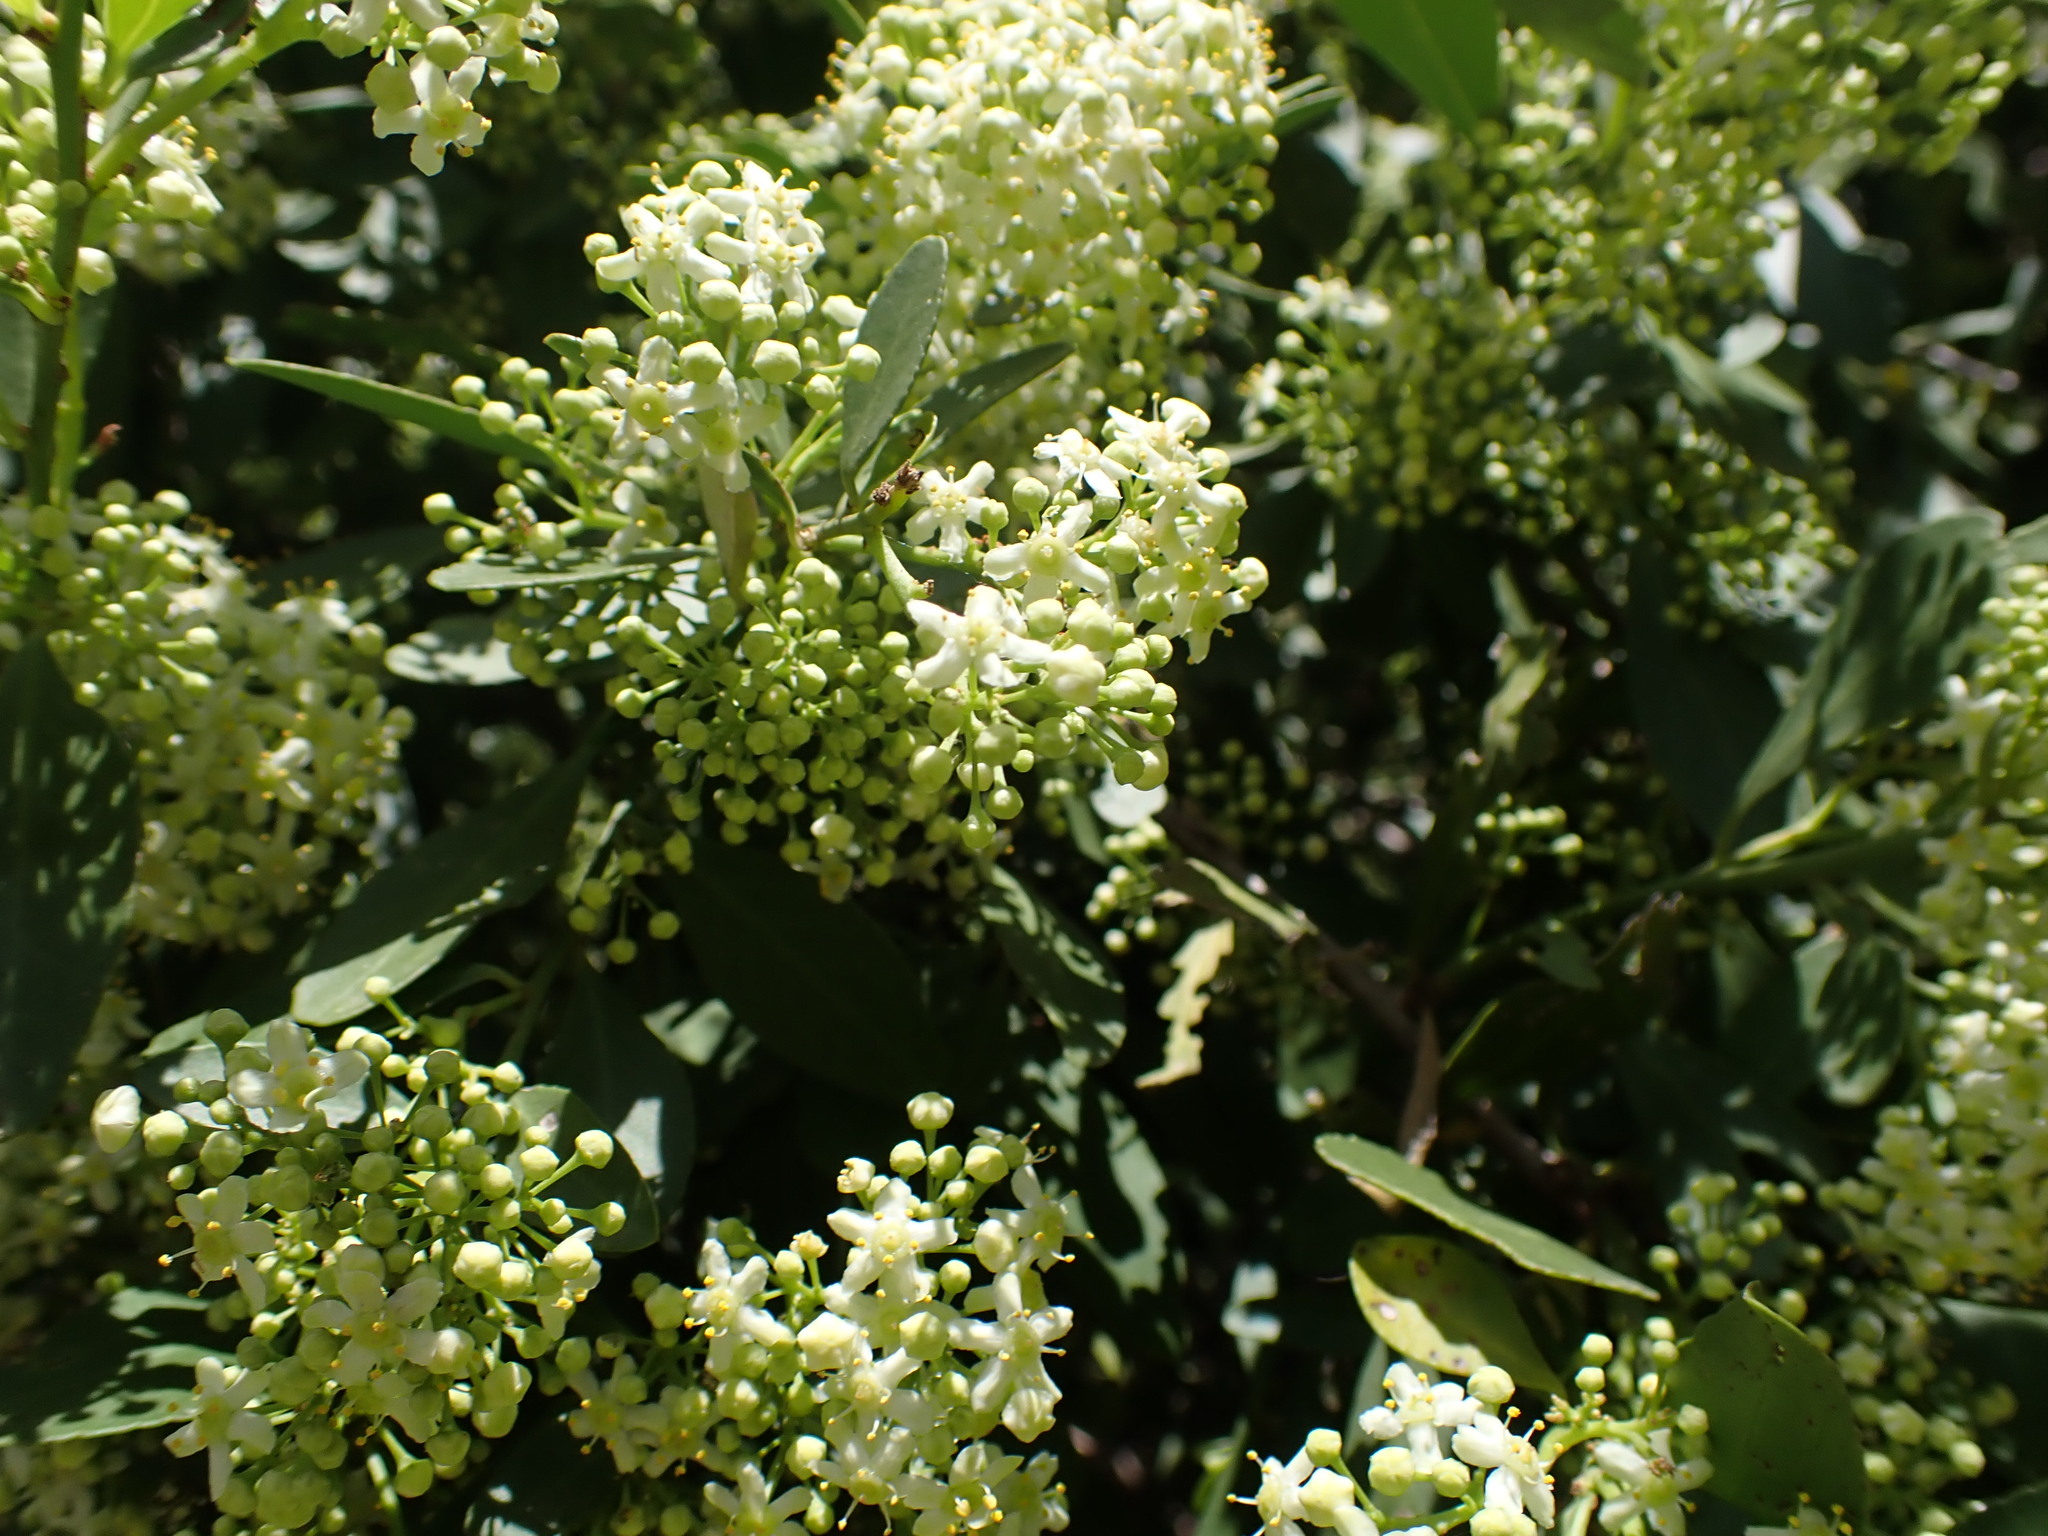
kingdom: Plantae
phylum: Tracheophyta
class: Magnoliopsida
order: Celastrales
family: Celastraceae
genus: Gymnosporia
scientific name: Gymnosporia buxifolia
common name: Common spike-thorn
